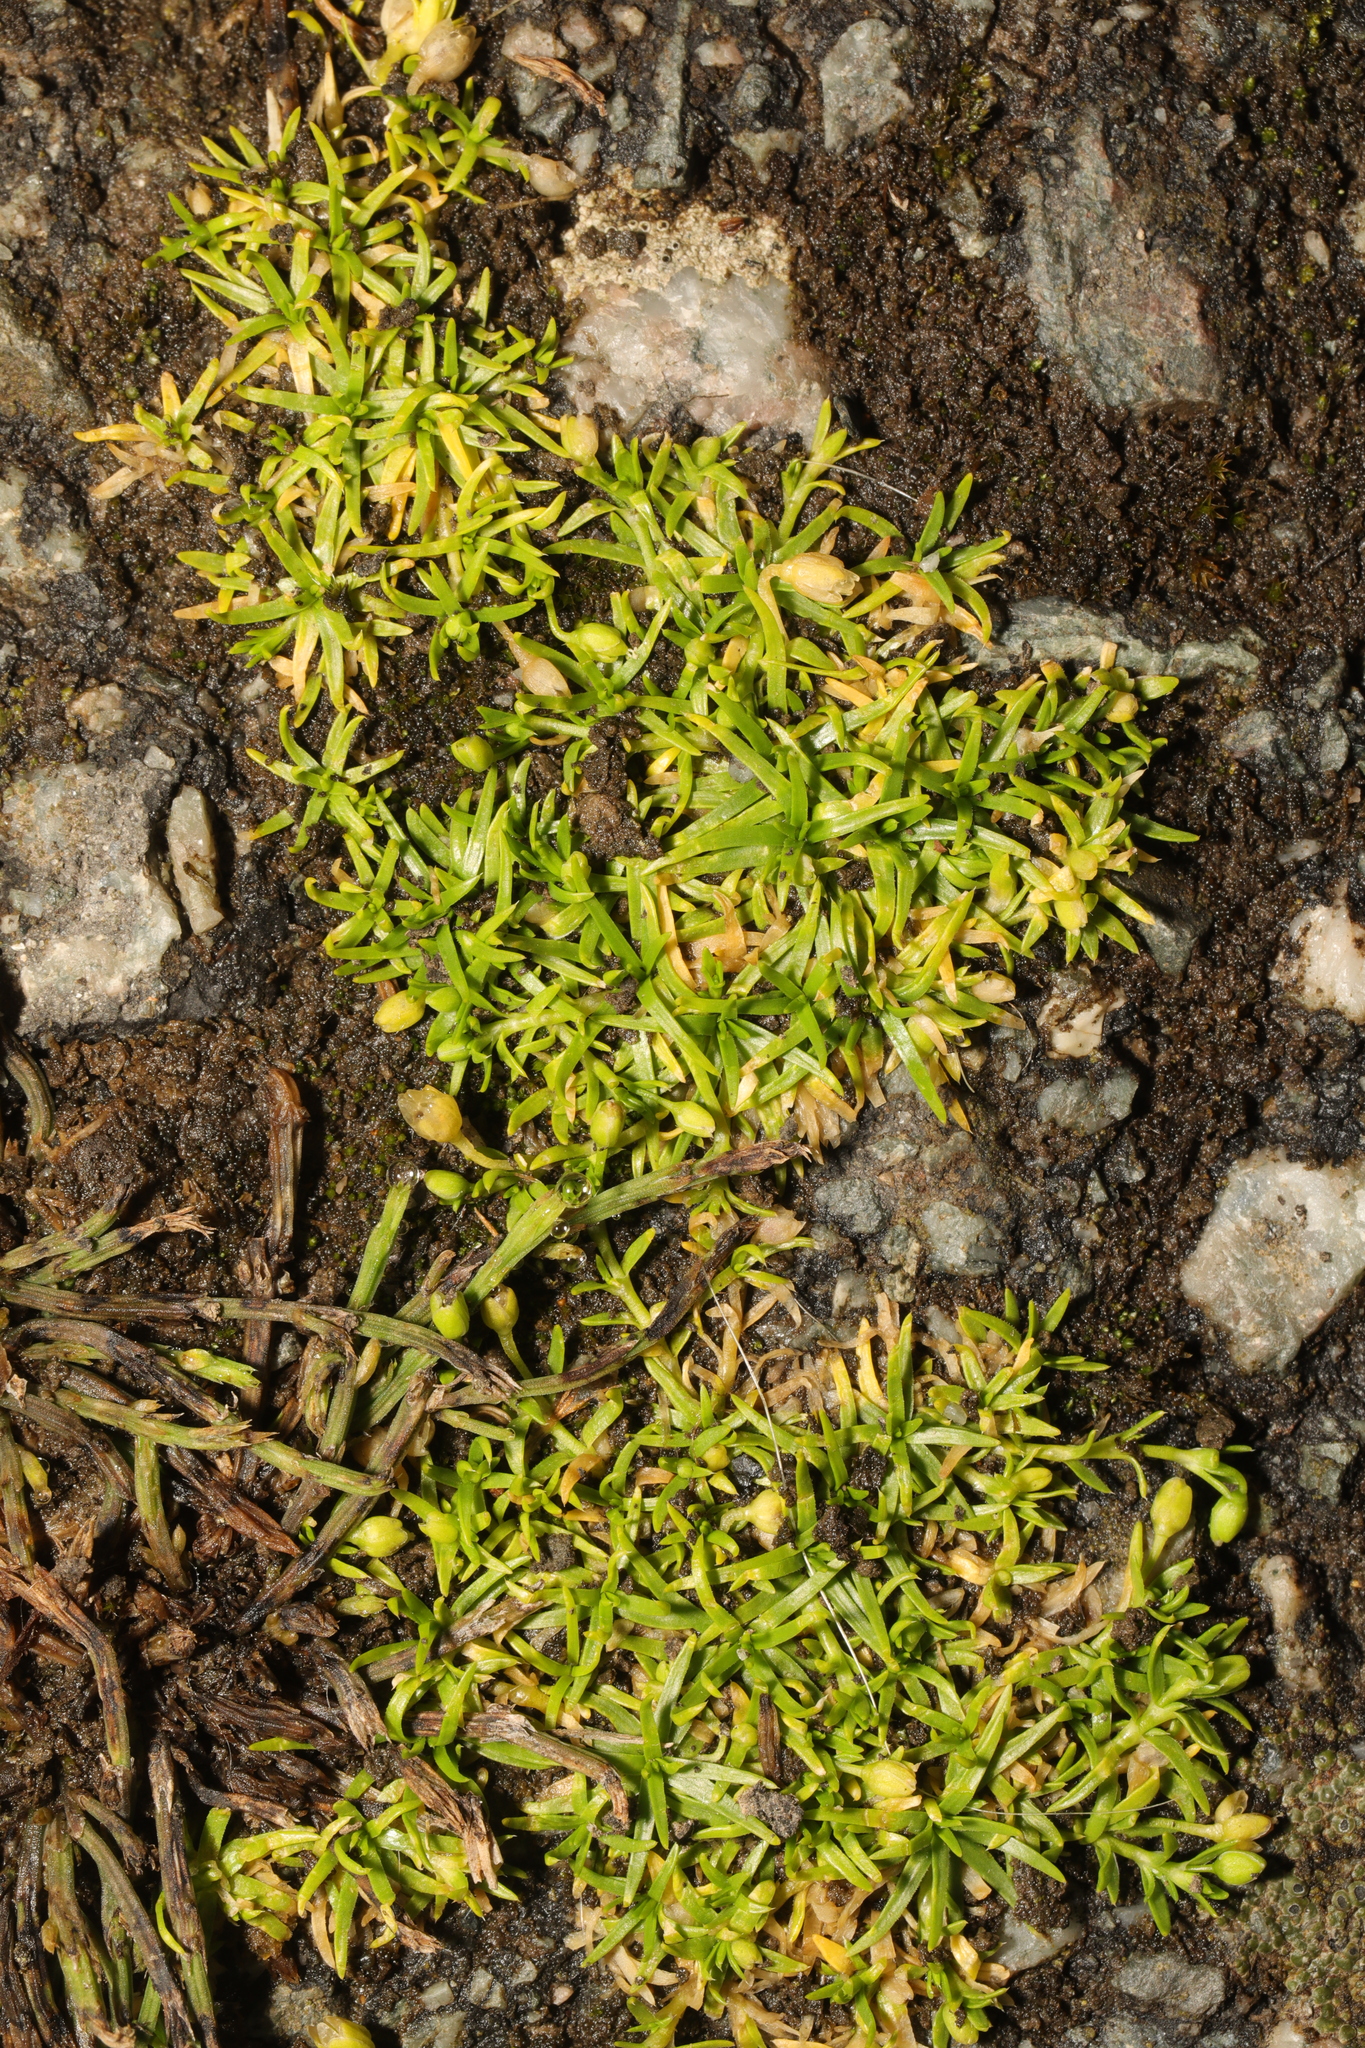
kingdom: Plantae
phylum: Tracheophyta
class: Magnoliopsida
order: Caryophyllales
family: Caryophyllaceae
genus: Sagina
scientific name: Sagina procumbens
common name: Procumbent pearlwort
